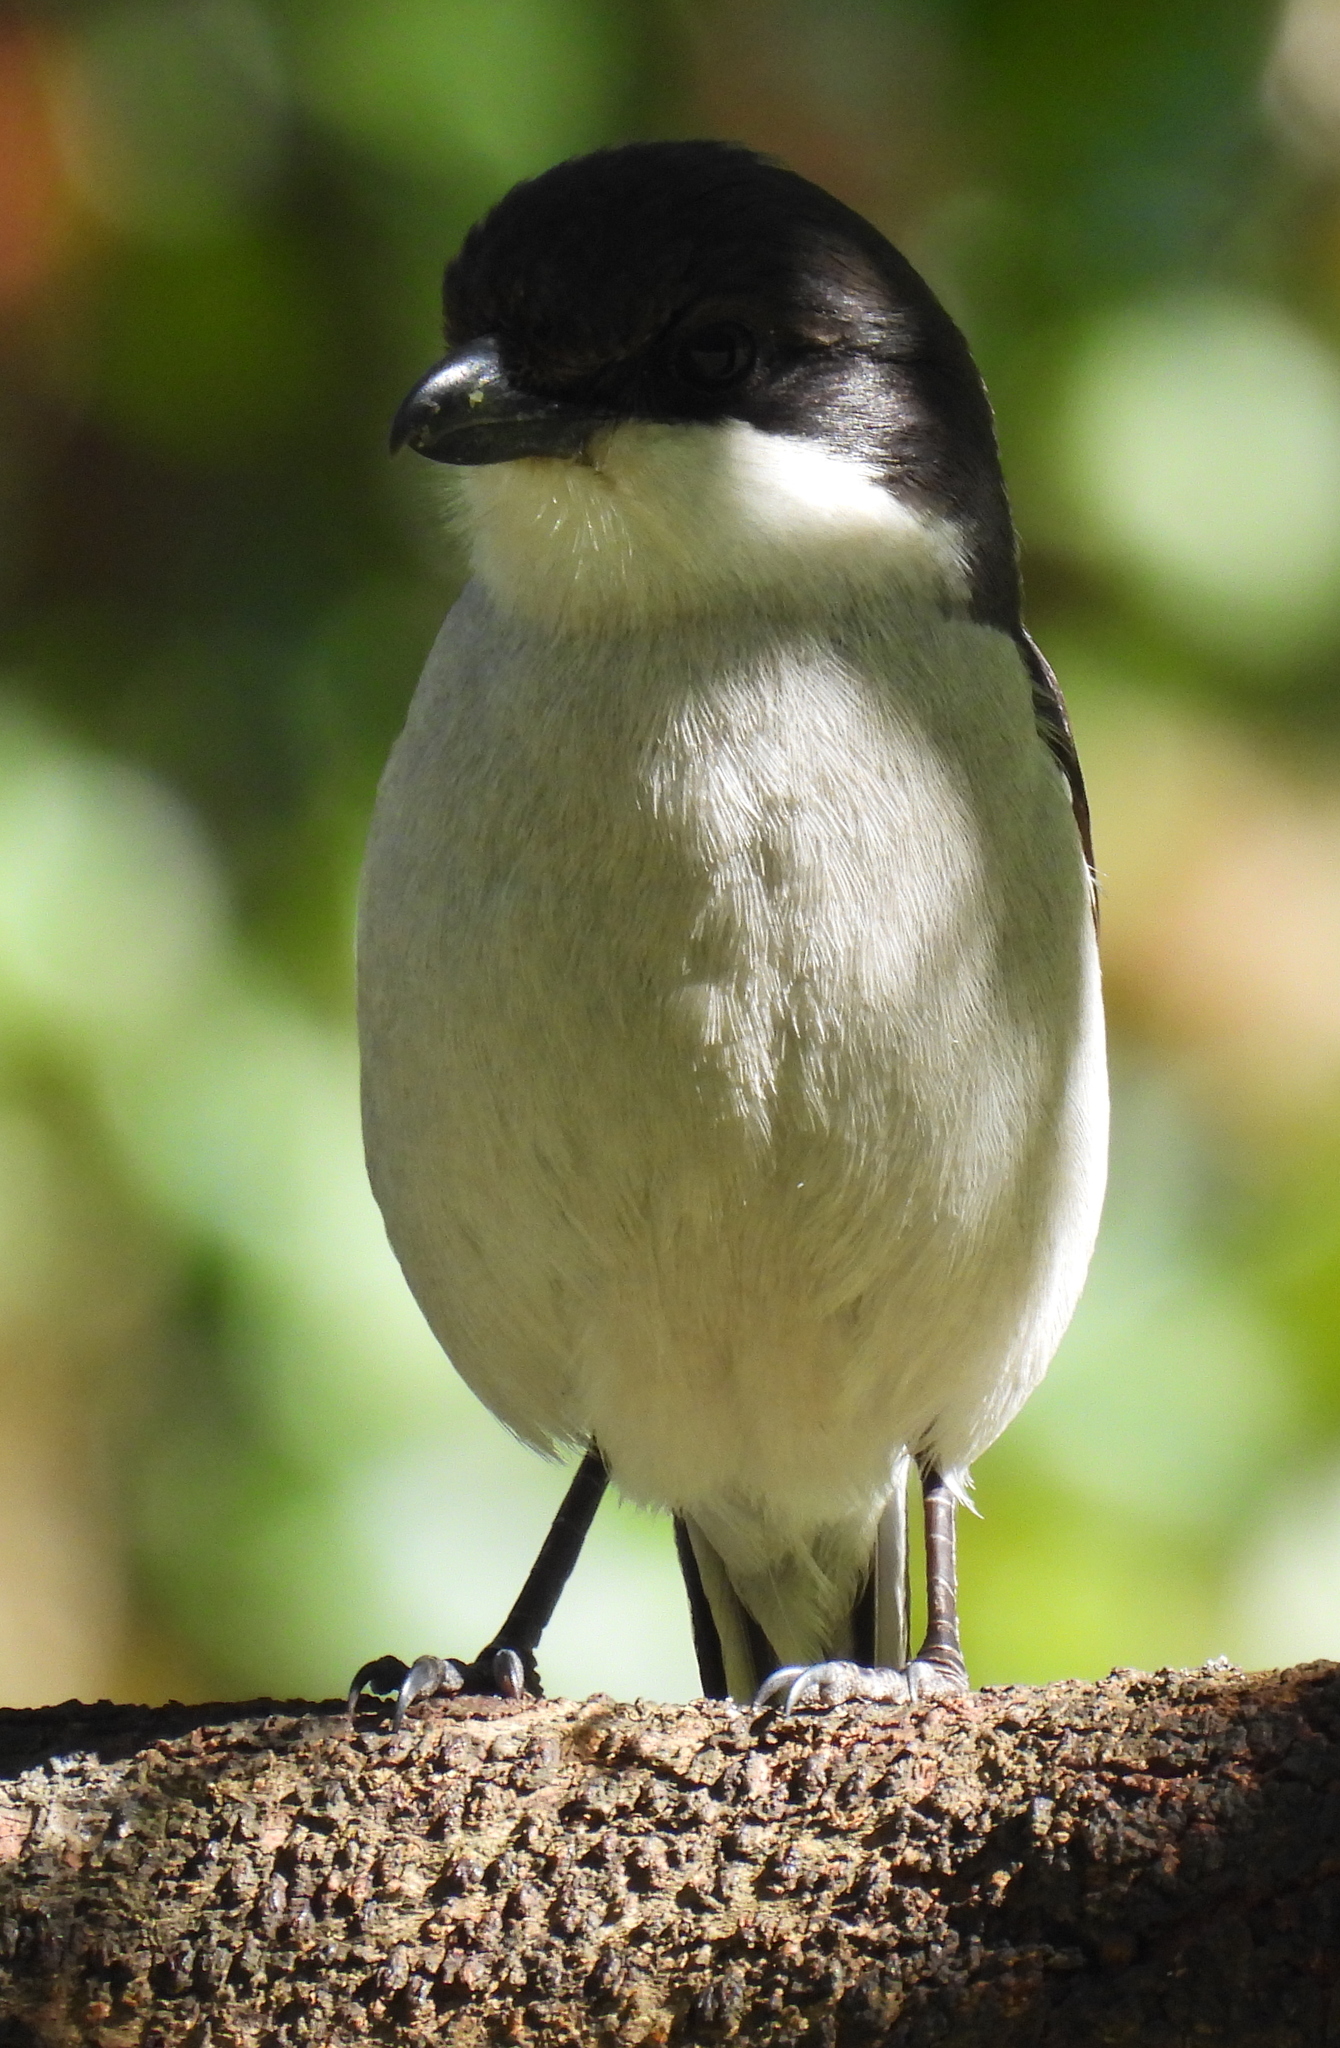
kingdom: Animalia
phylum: Chordata
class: Aves
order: Passeriformes
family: Laniidae
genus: Lanius
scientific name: Lanius collaris
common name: Southern fiscal
